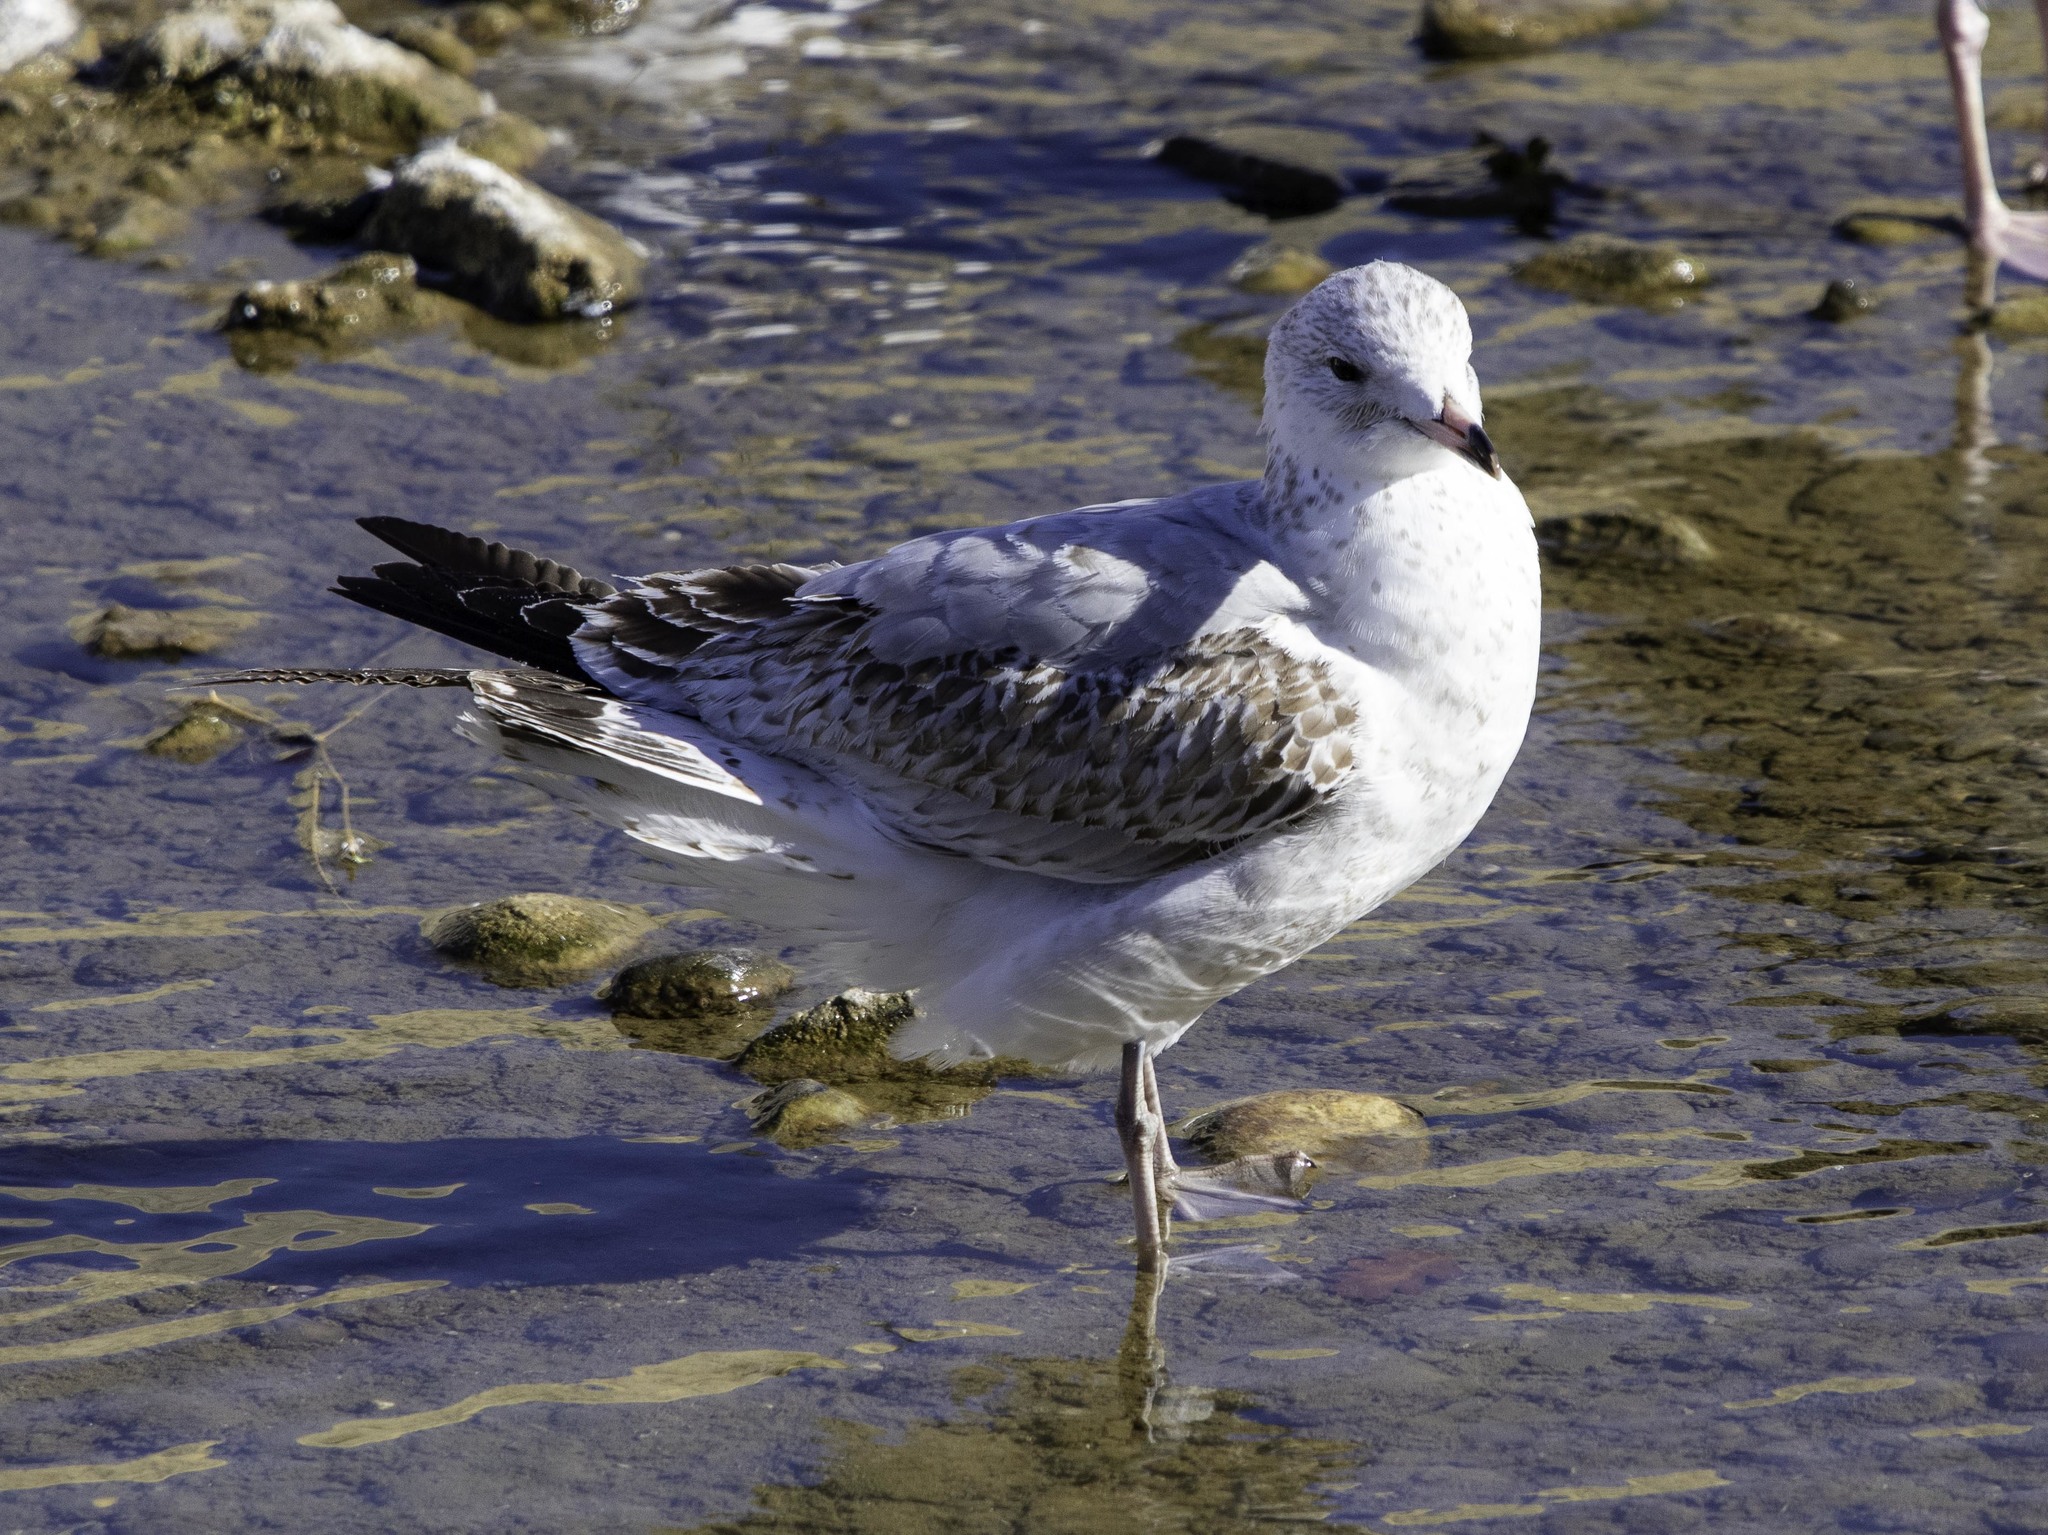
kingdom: Animalia
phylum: Chordata
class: Aves
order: Charadriiformes
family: Laridae
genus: Larus
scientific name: Larus delawarensis
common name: Ring-billed gull
